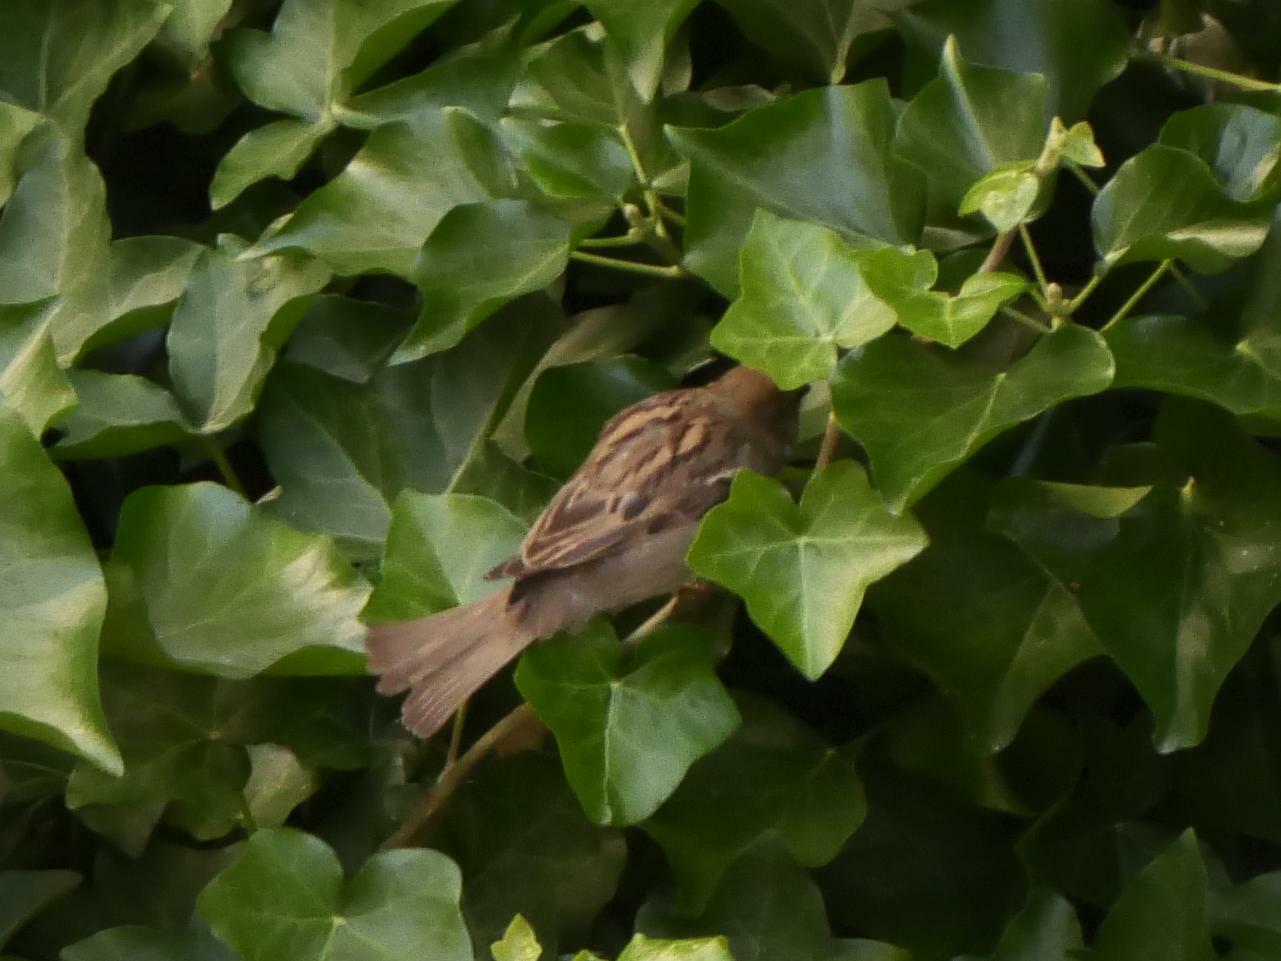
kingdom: Animalia
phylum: Chordata
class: Aves
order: Passeriformes
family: Passeridae
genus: Passer
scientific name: Passer domesticus
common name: House sparrow
